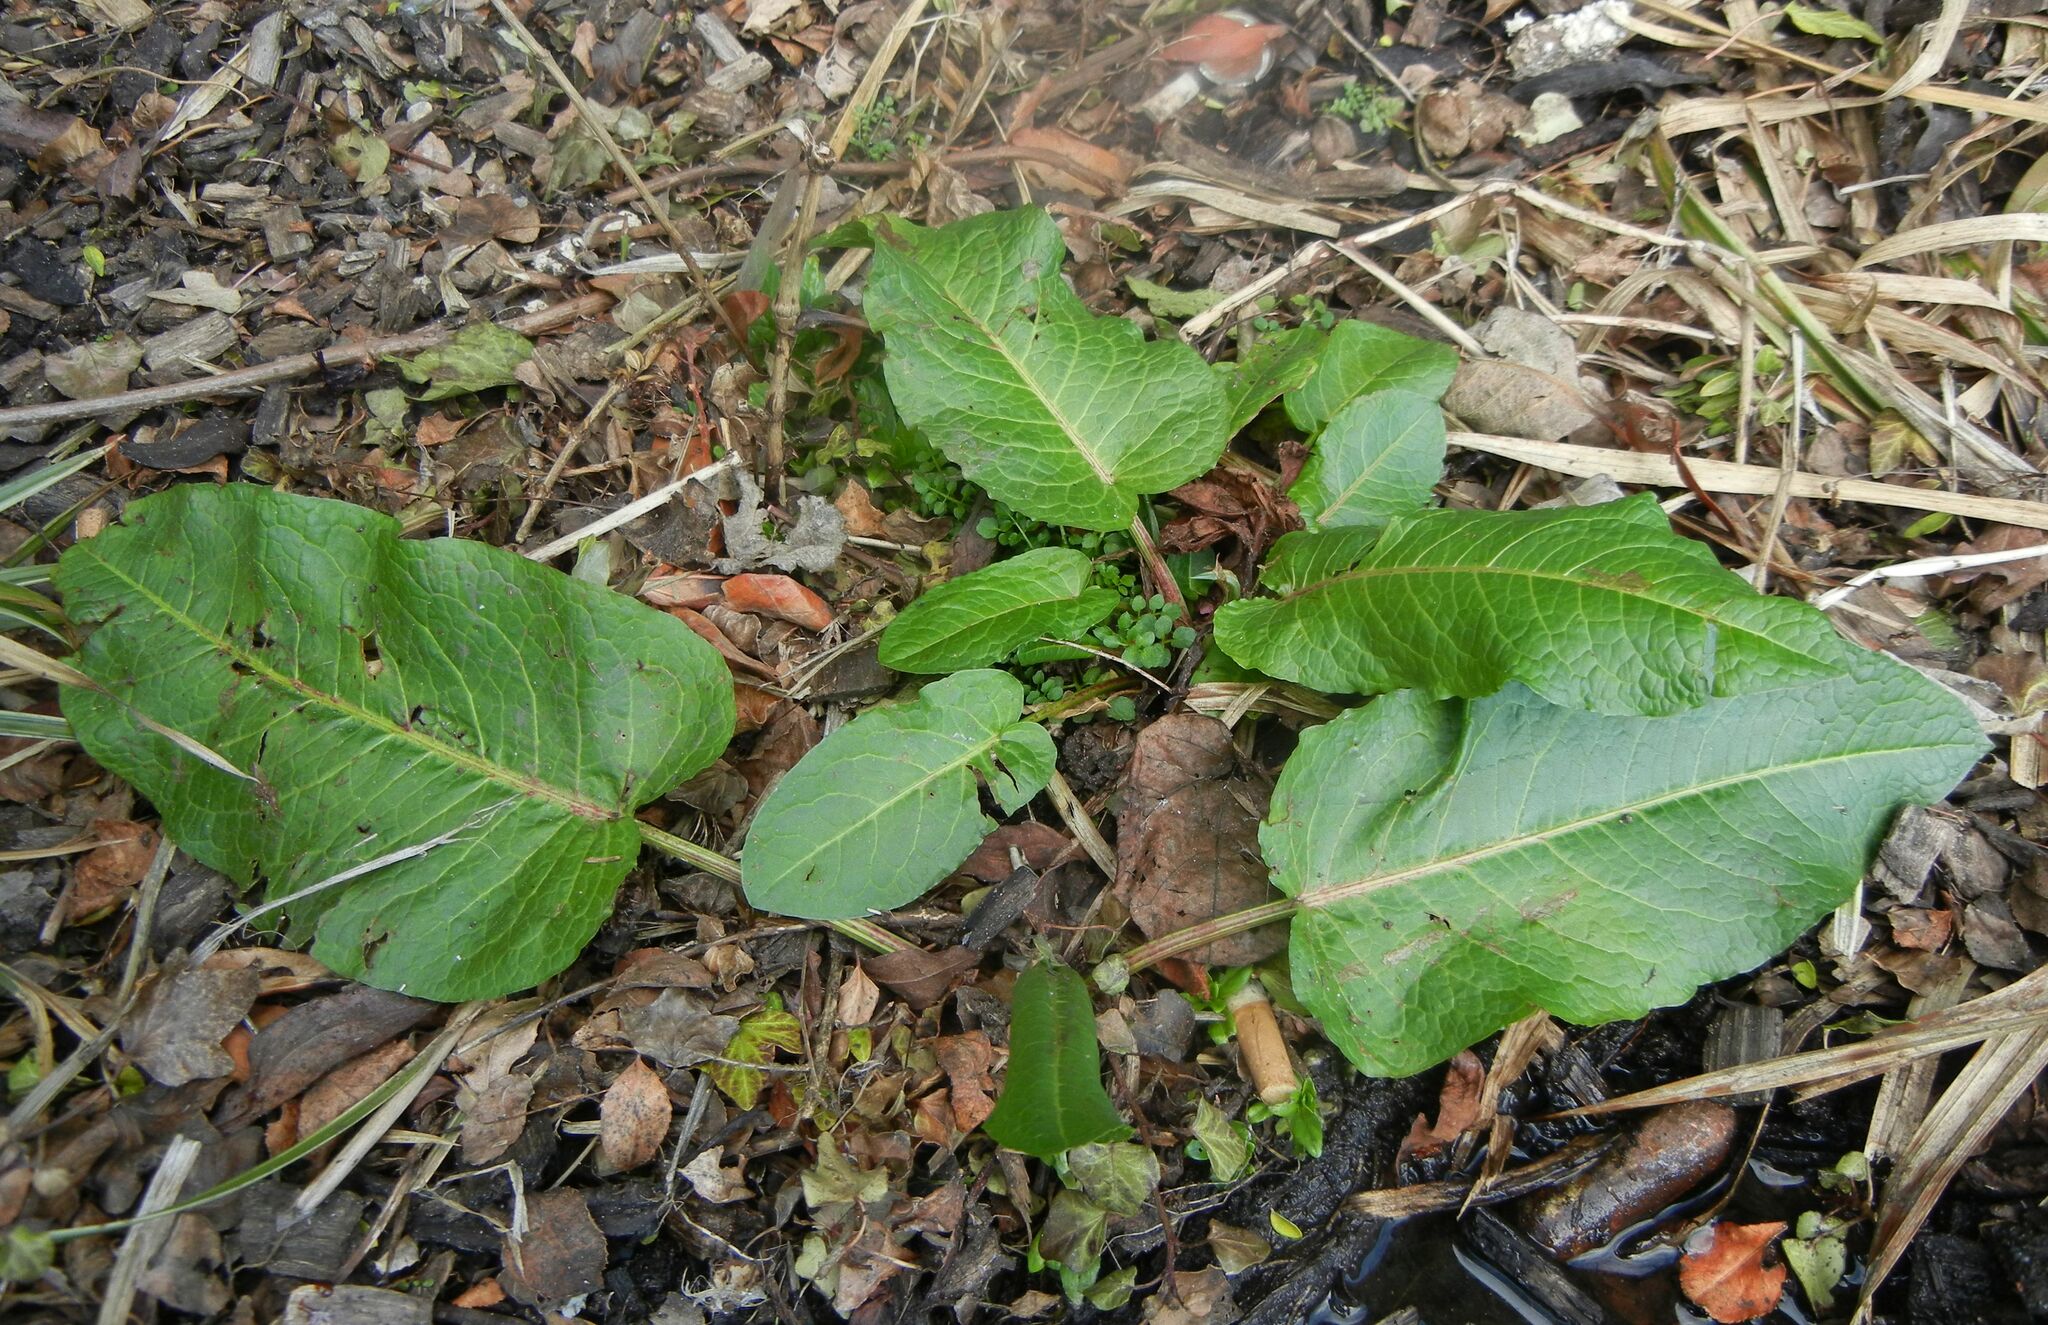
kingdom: Plantae
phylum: Tracheophyta
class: Magnoliopsida
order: Caryophyllales
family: Polygonaceae
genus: Rumex
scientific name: Rumex obtusifolius
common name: Bitter dock
